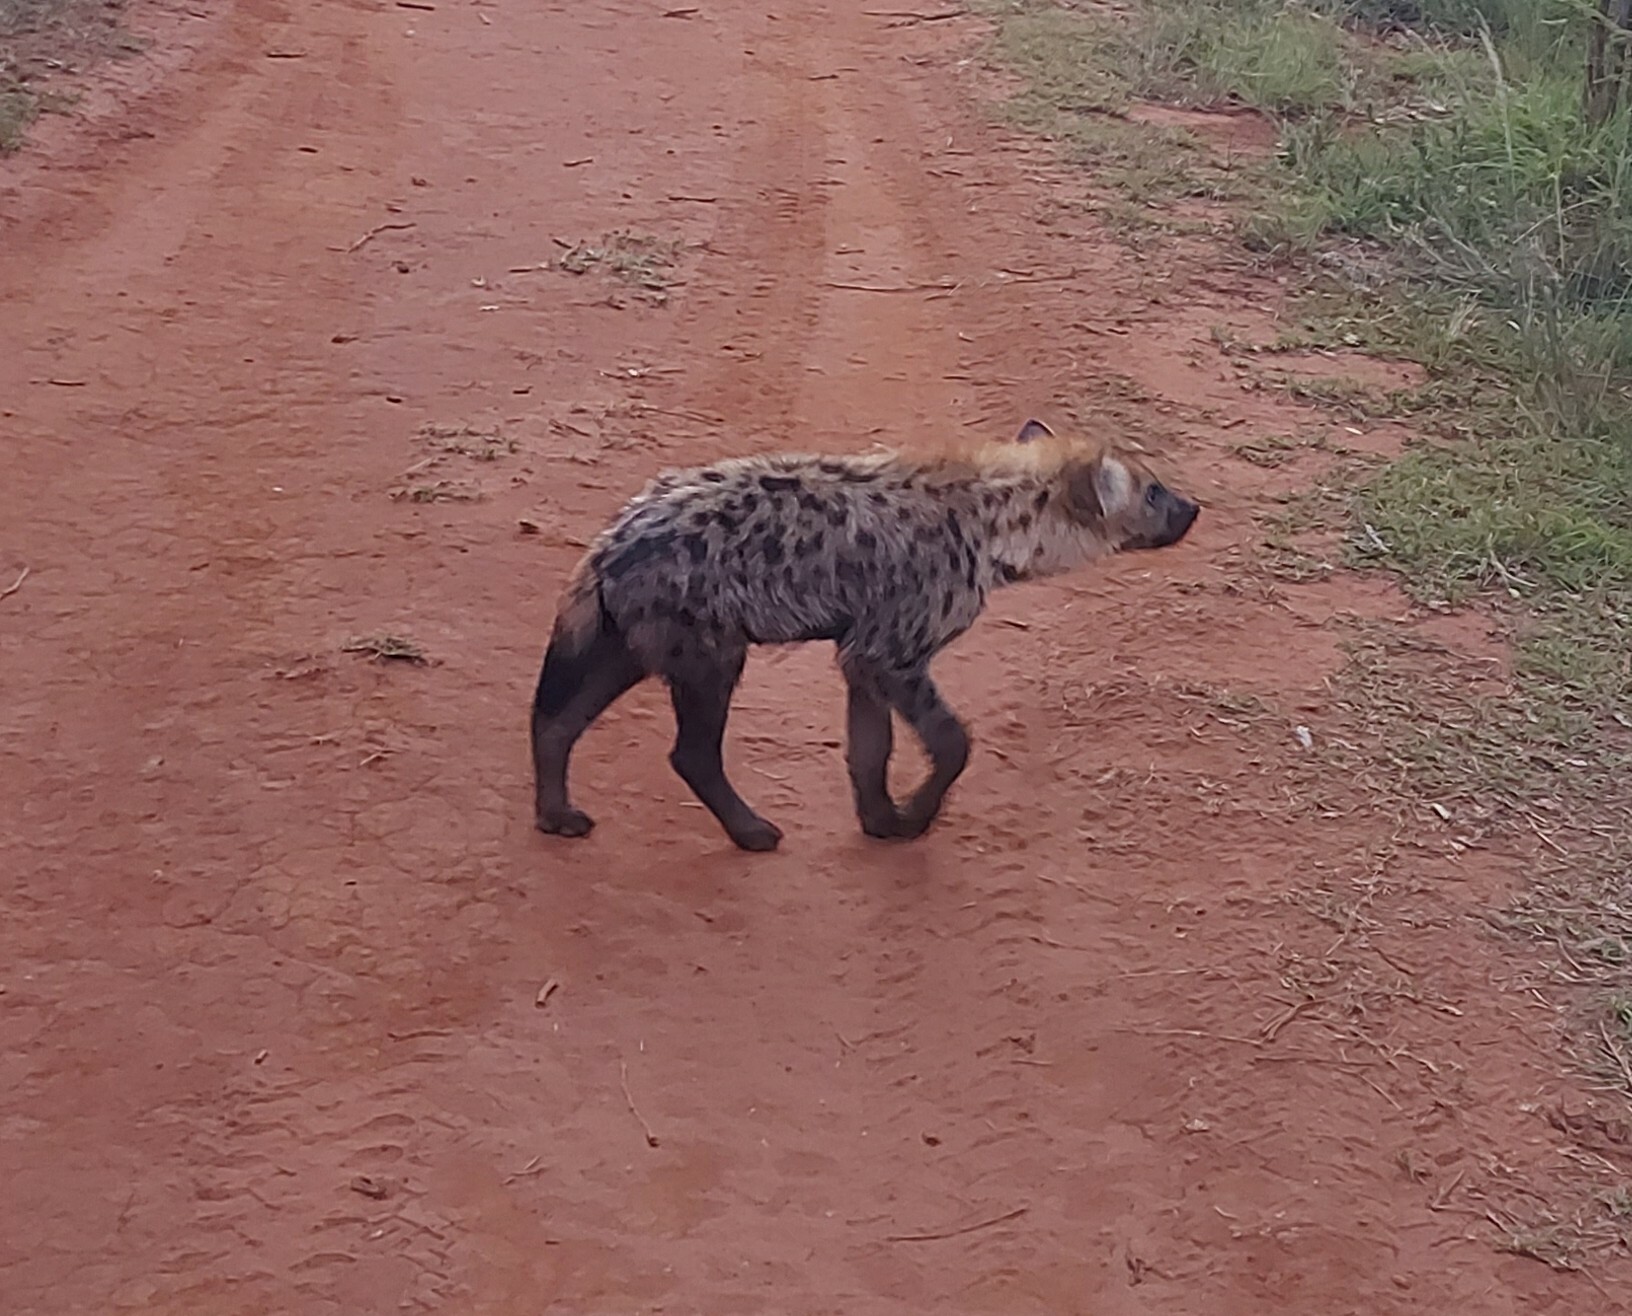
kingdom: Animalia
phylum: Chordata
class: Mammalia
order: Carnivora
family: Hyaenidae
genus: Crocuta
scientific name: Crocuta crocuta
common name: Spotted hyaena
